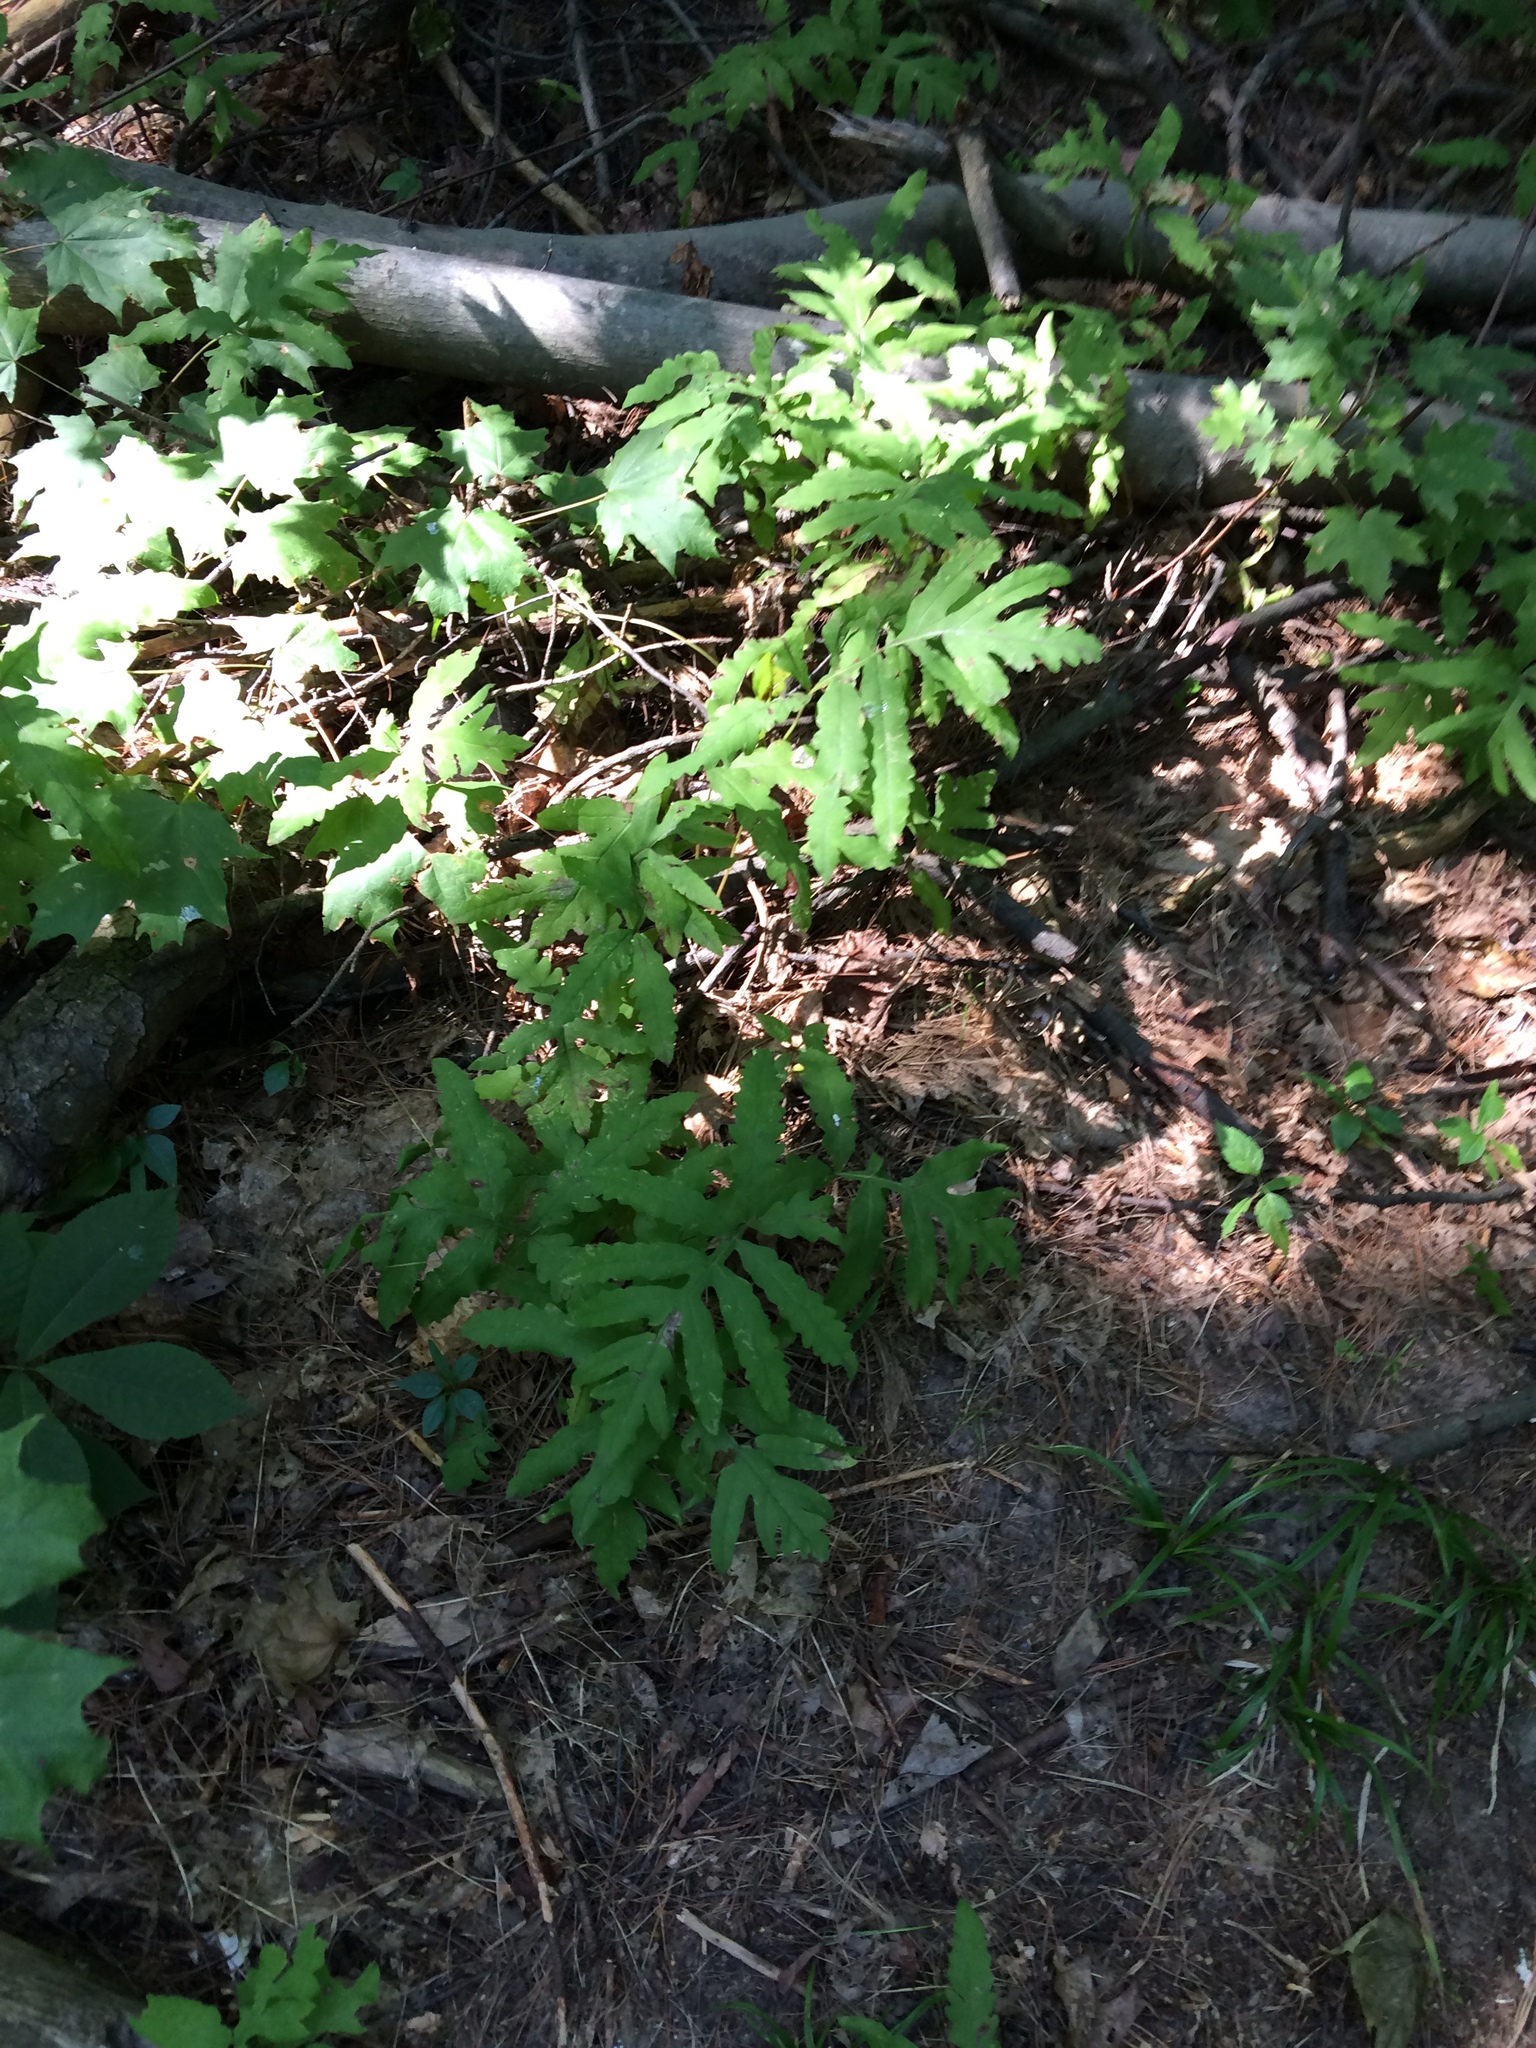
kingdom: Plantae
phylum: Tracheophyta
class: Polypodiopsida
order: Polypodiales
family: Onocleaceae
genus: Onoclea
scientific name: Onoclea sensibilis
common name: Sensitive fern
